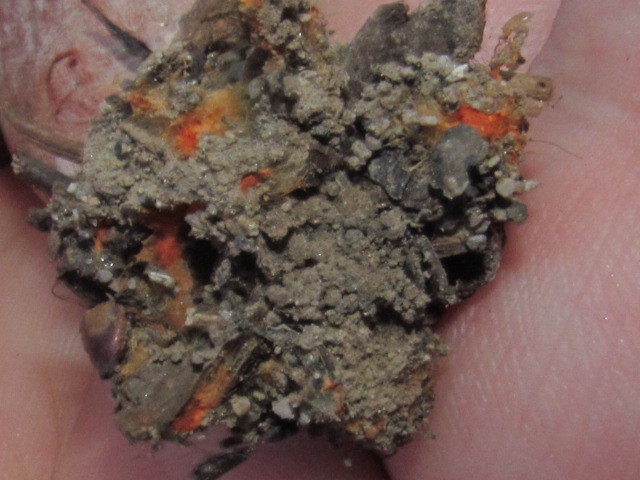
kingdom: Fungi
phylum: Basidiomycota
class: Agaricomycetes
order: Russulales
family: Russulaceae
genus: Lactarius
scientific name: Lactarius rubrilacteus
